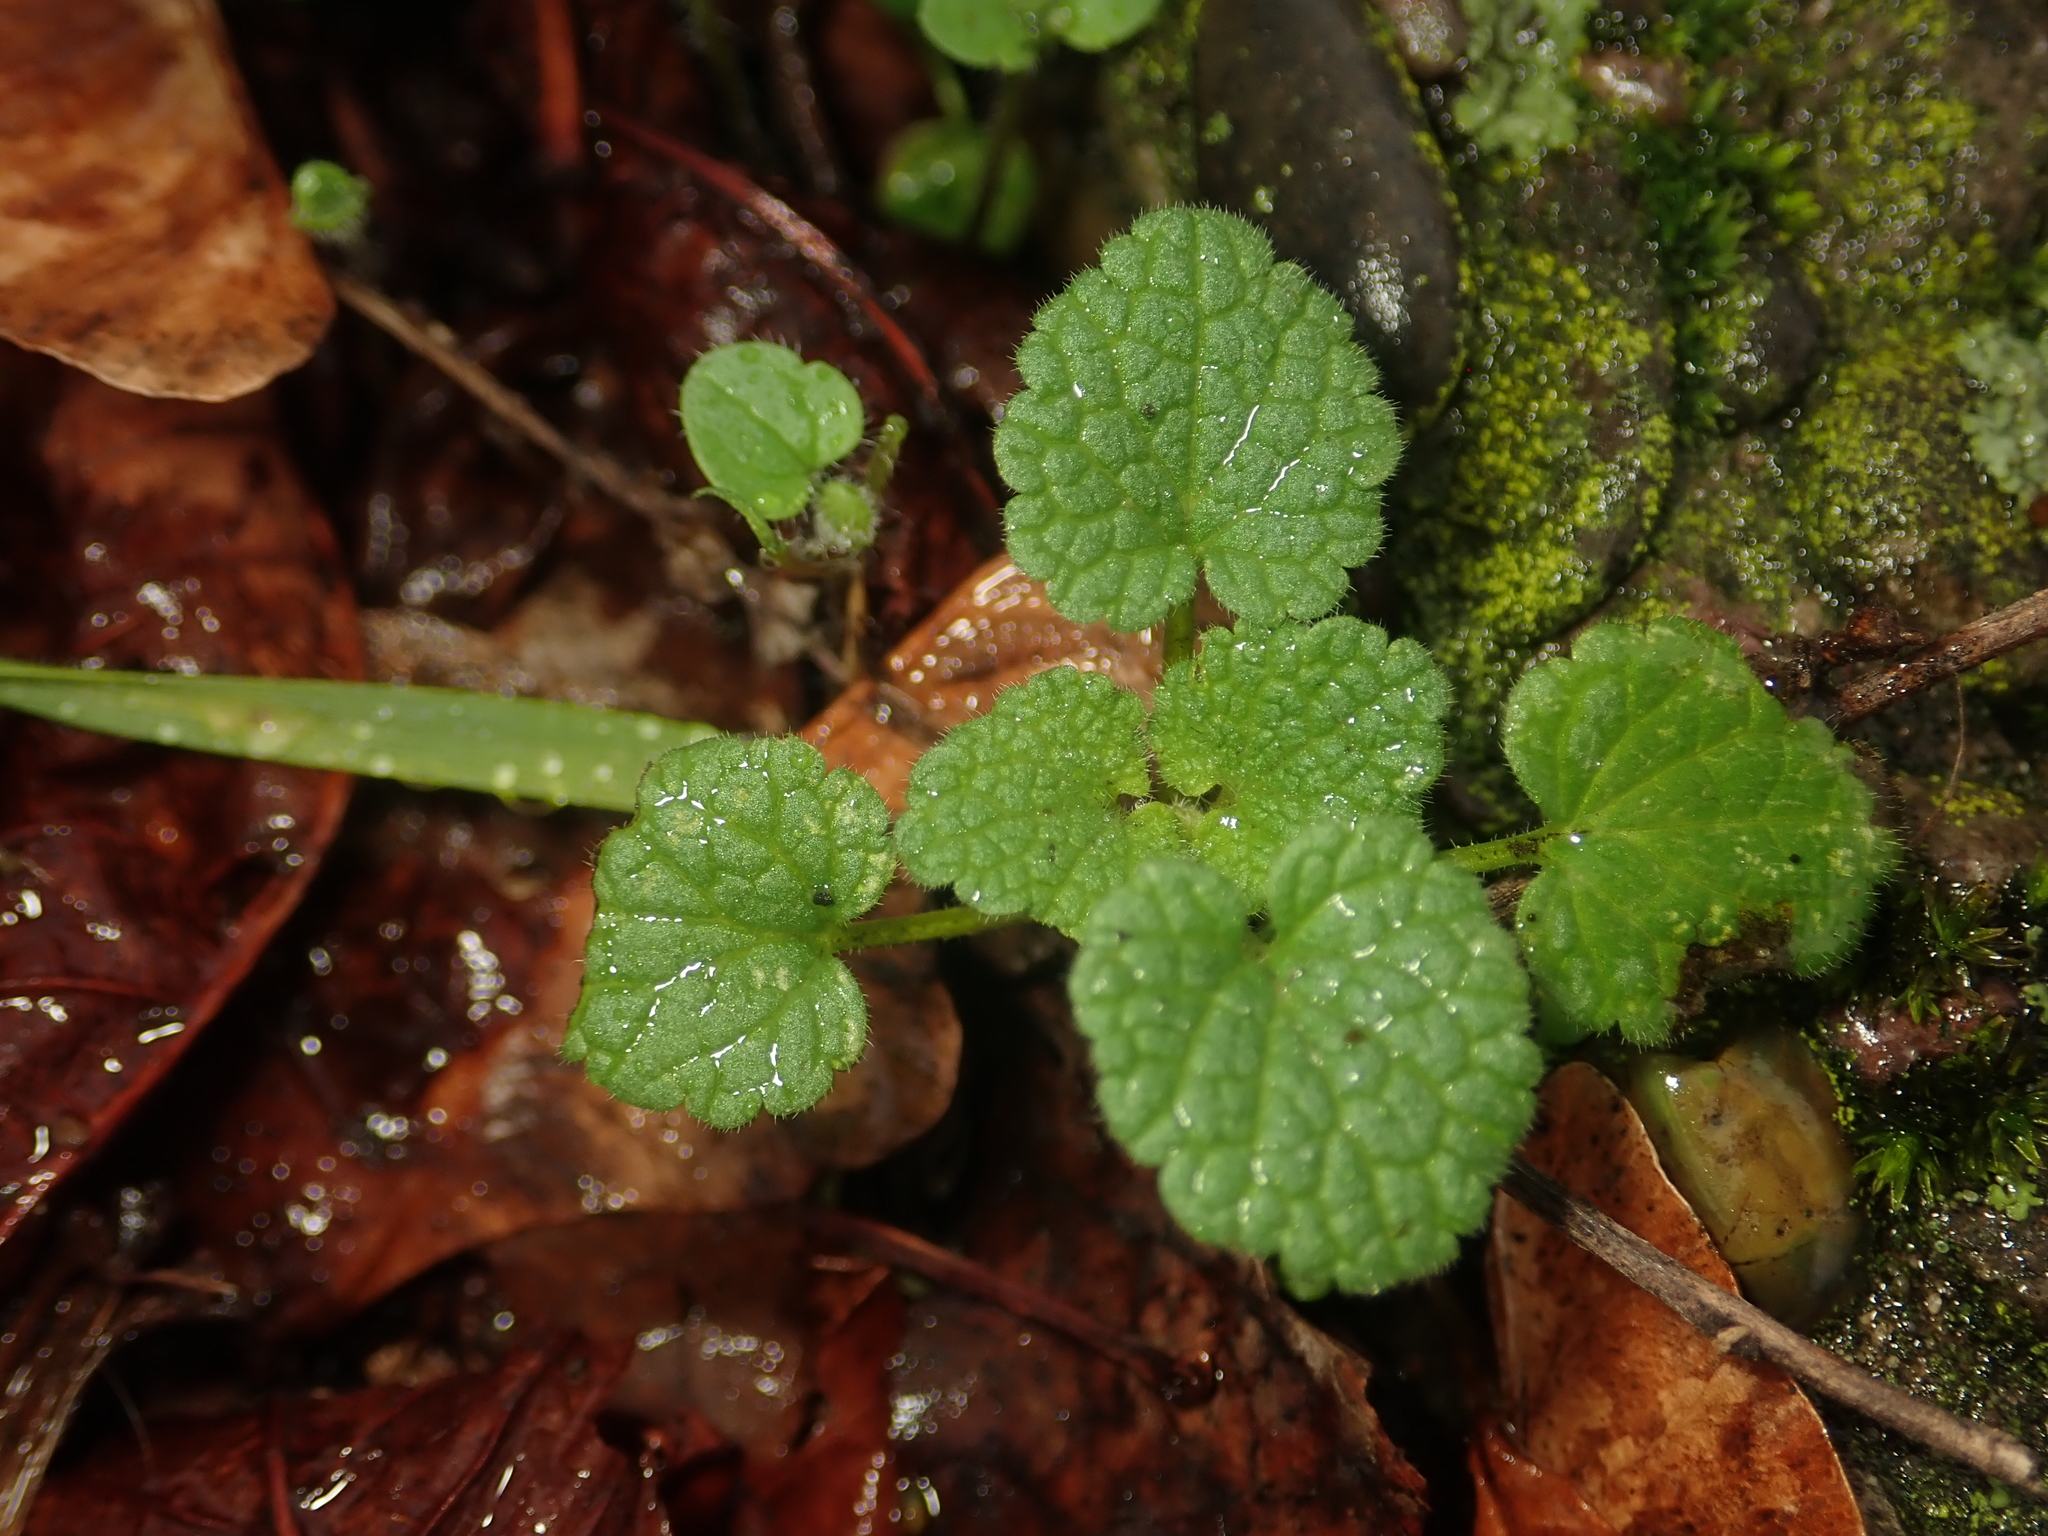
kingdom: Plantae
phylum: Tracheophyta
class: Magnoliopsida
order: Lamiales
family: Lamiaceae
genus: Lamium
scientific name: Lamium purpureum
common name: Red dead-nettle
